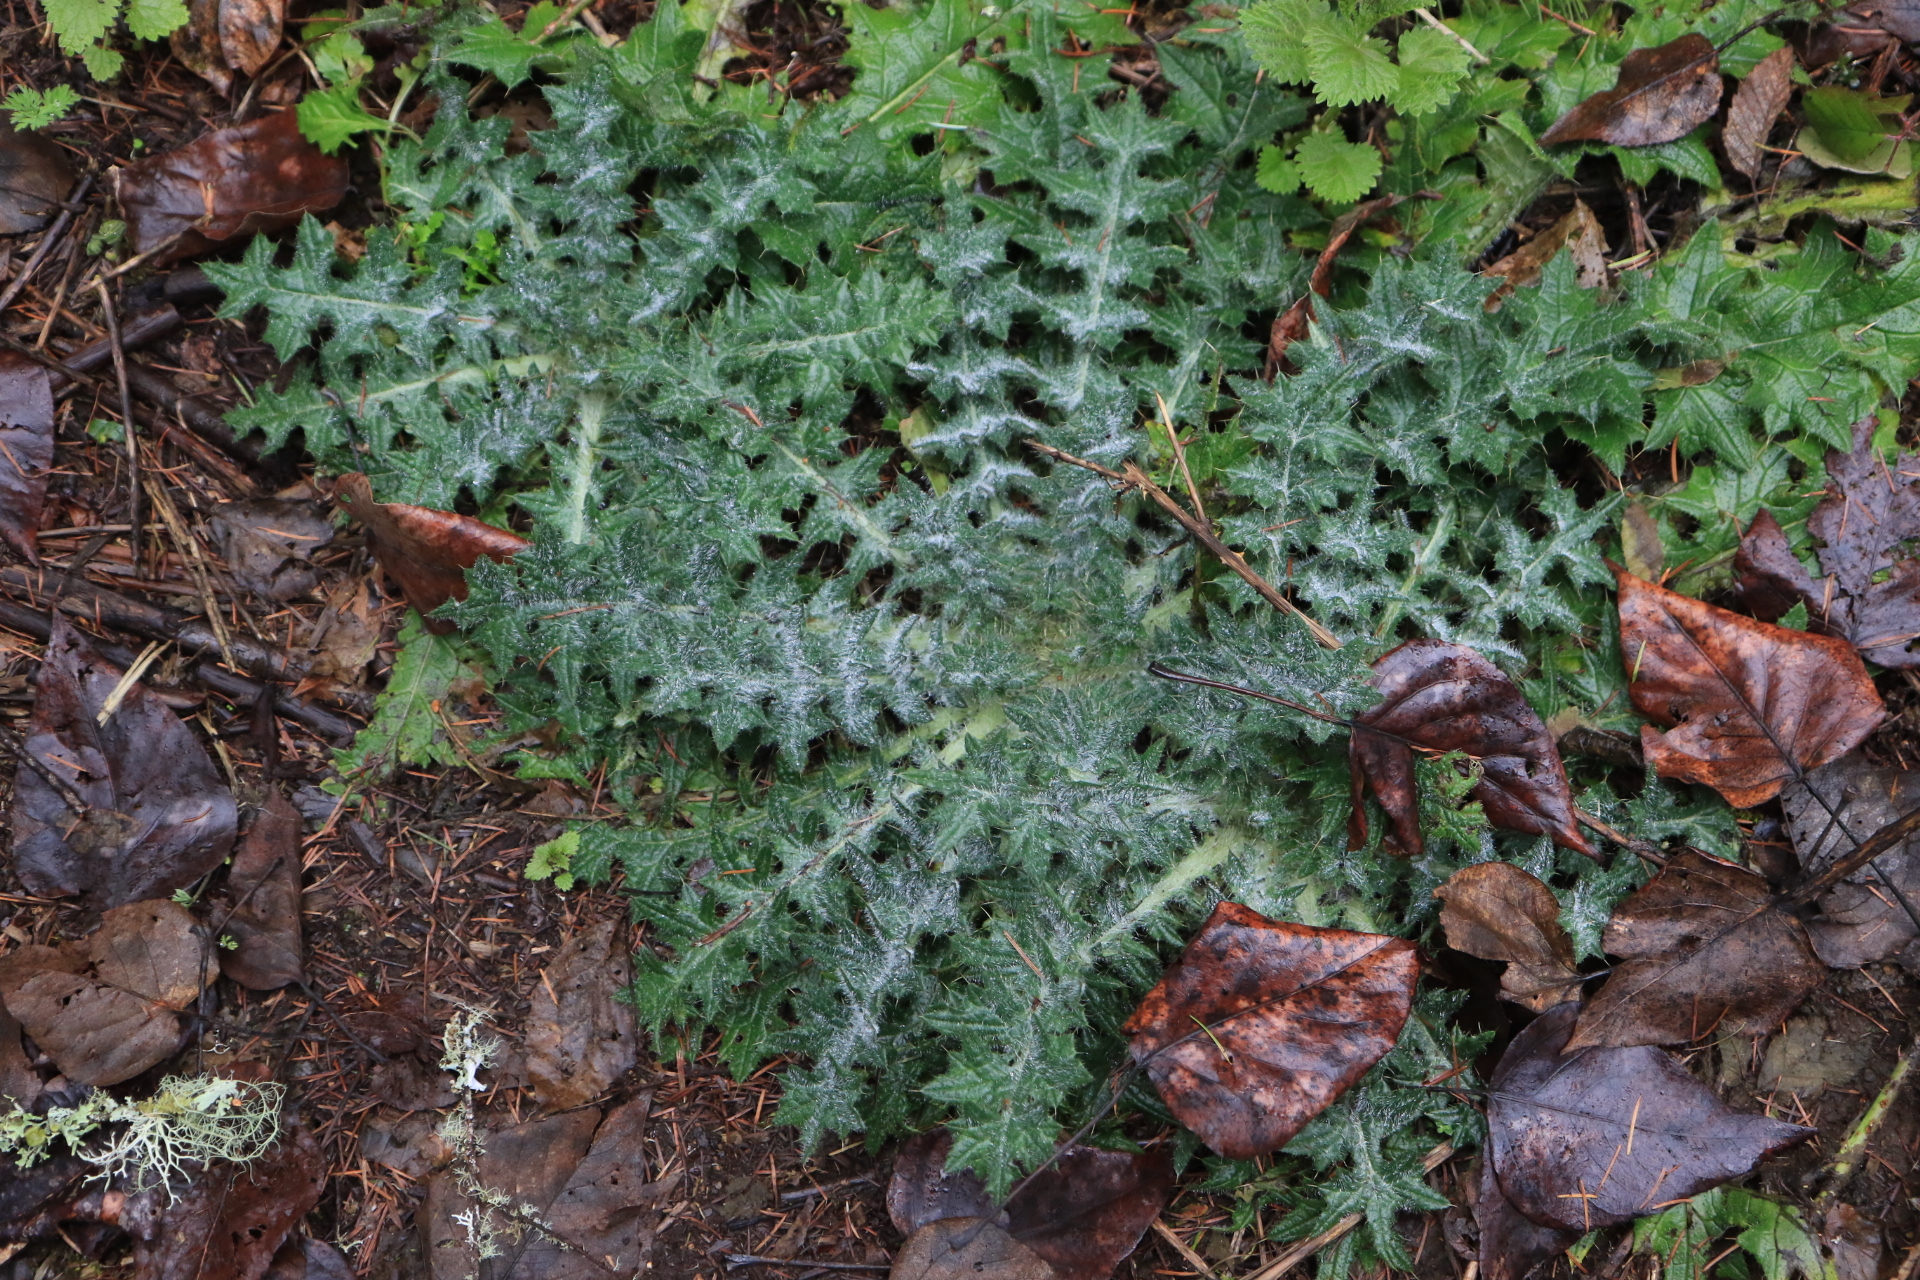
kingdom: Plantae
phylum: Tracheophyta
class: Magnoliopsida
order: Asterales
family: Asteraceae
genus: Cirsium
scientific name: Cirsium vulgare
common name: Bull thistle
